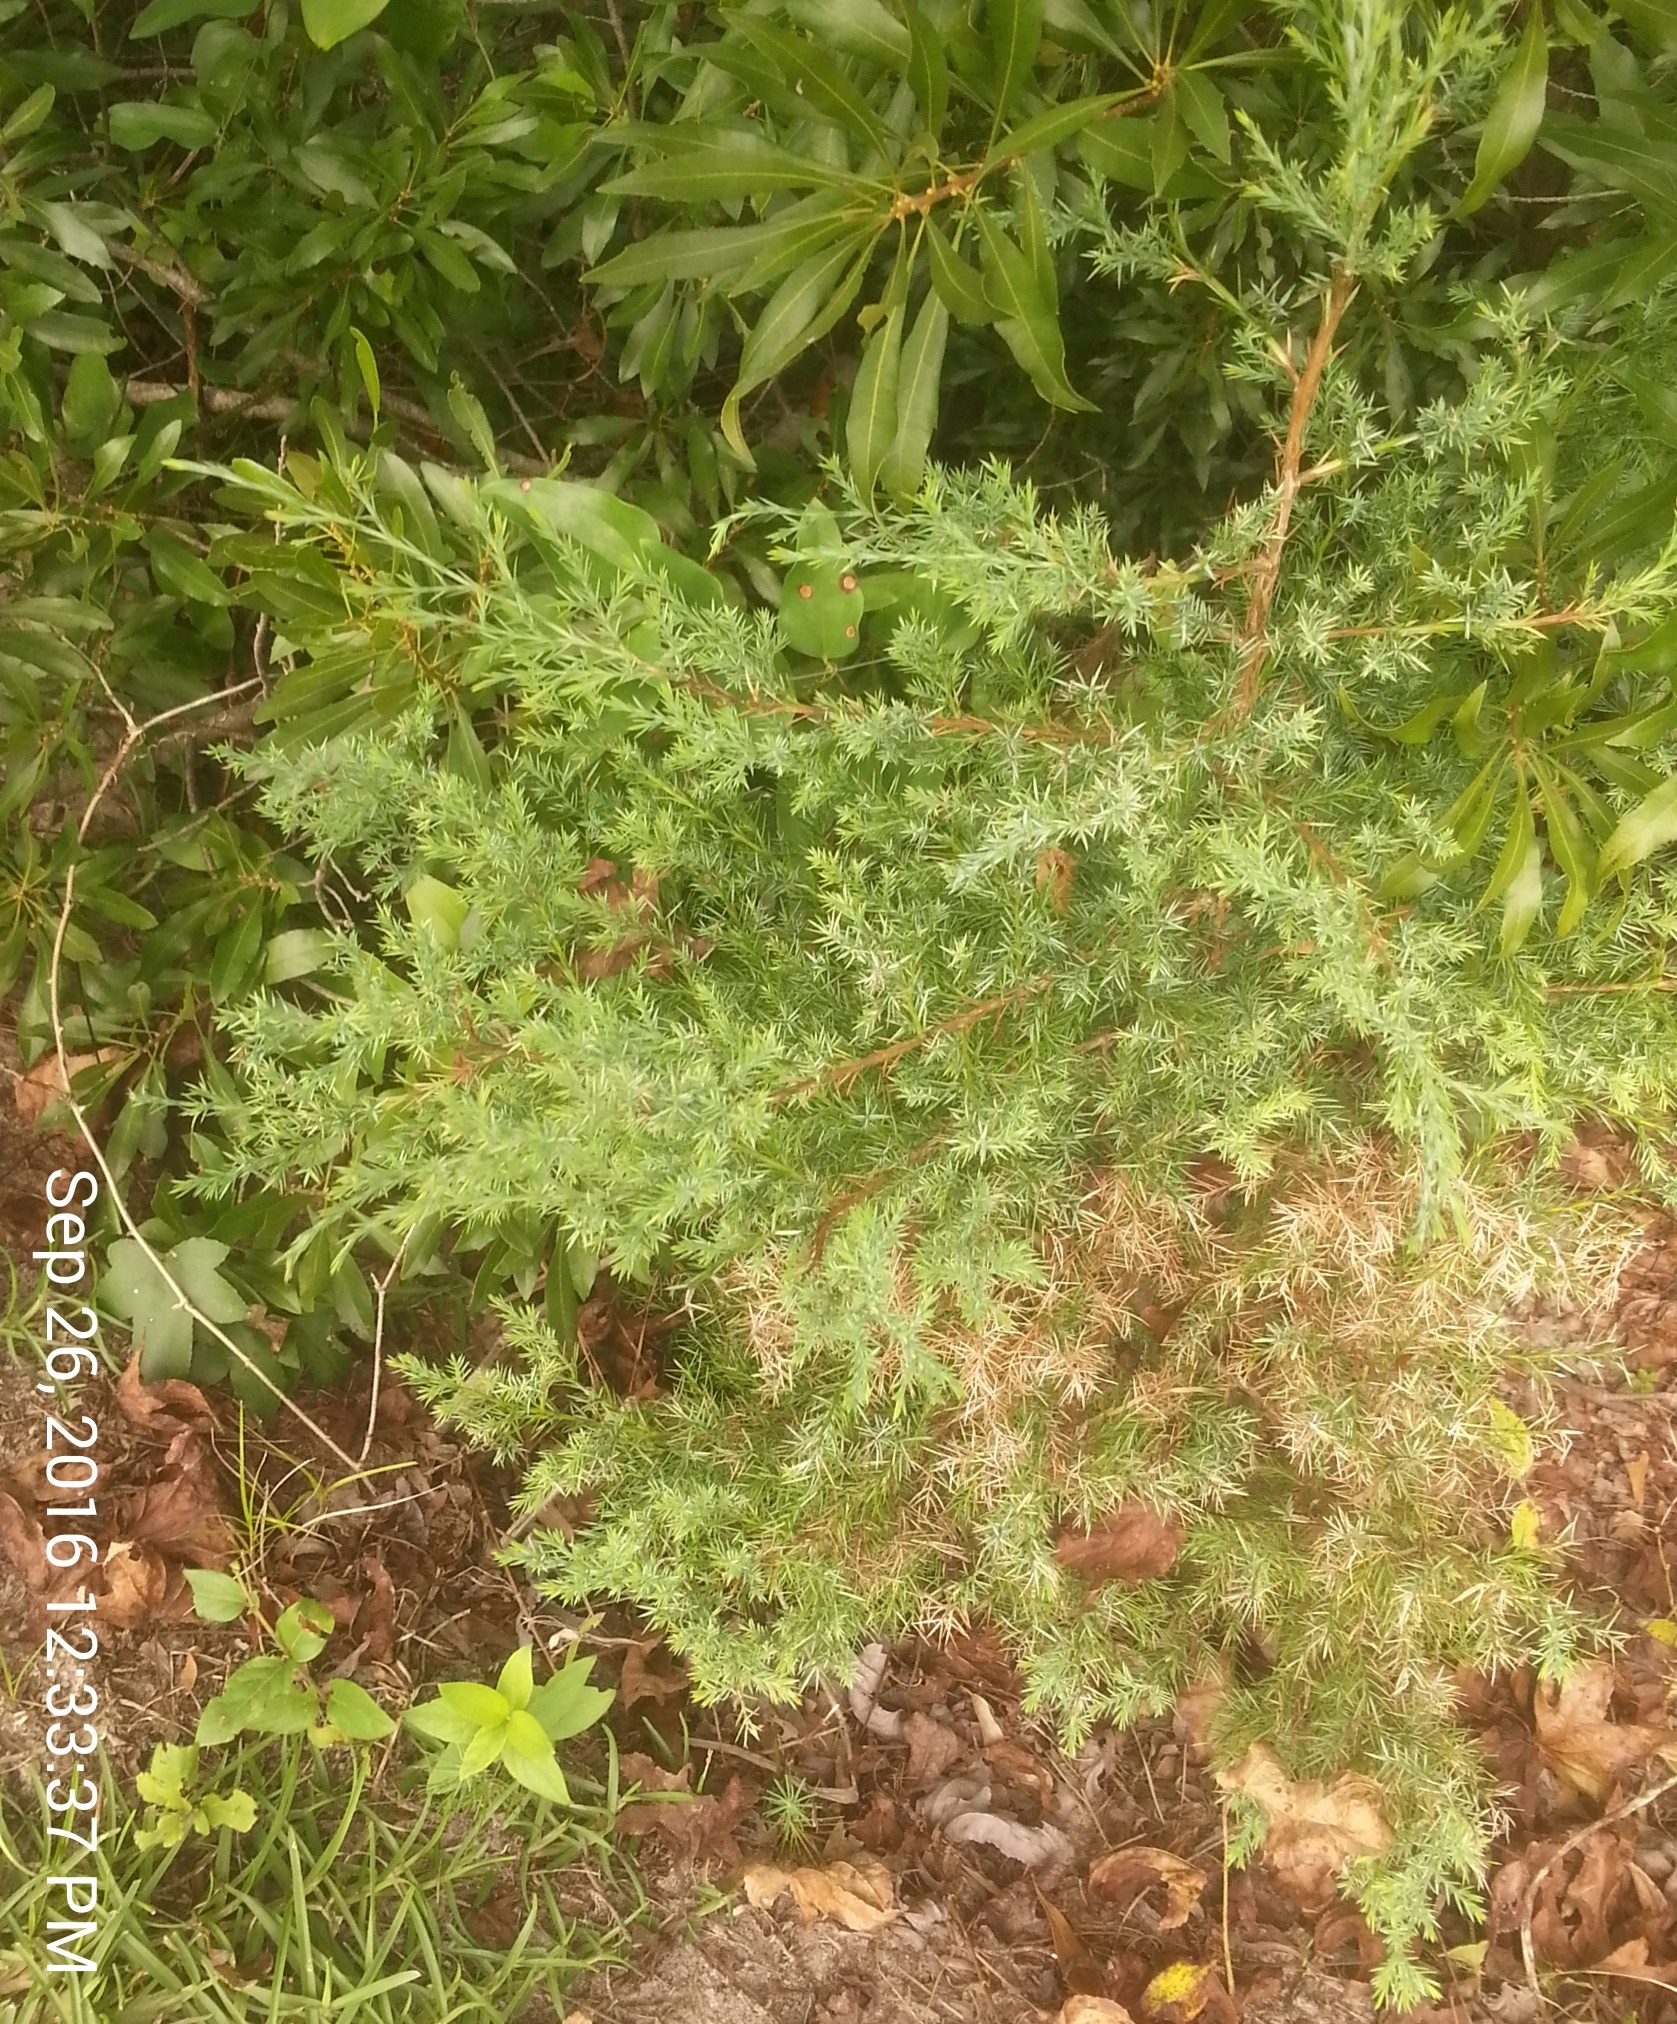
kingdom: Plantae
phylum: Tracheophyta
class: Pinopsida
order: Pinales
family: Cupressaceae
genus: Juniperus
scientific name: Juniperus virginiana
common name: Red juniper
